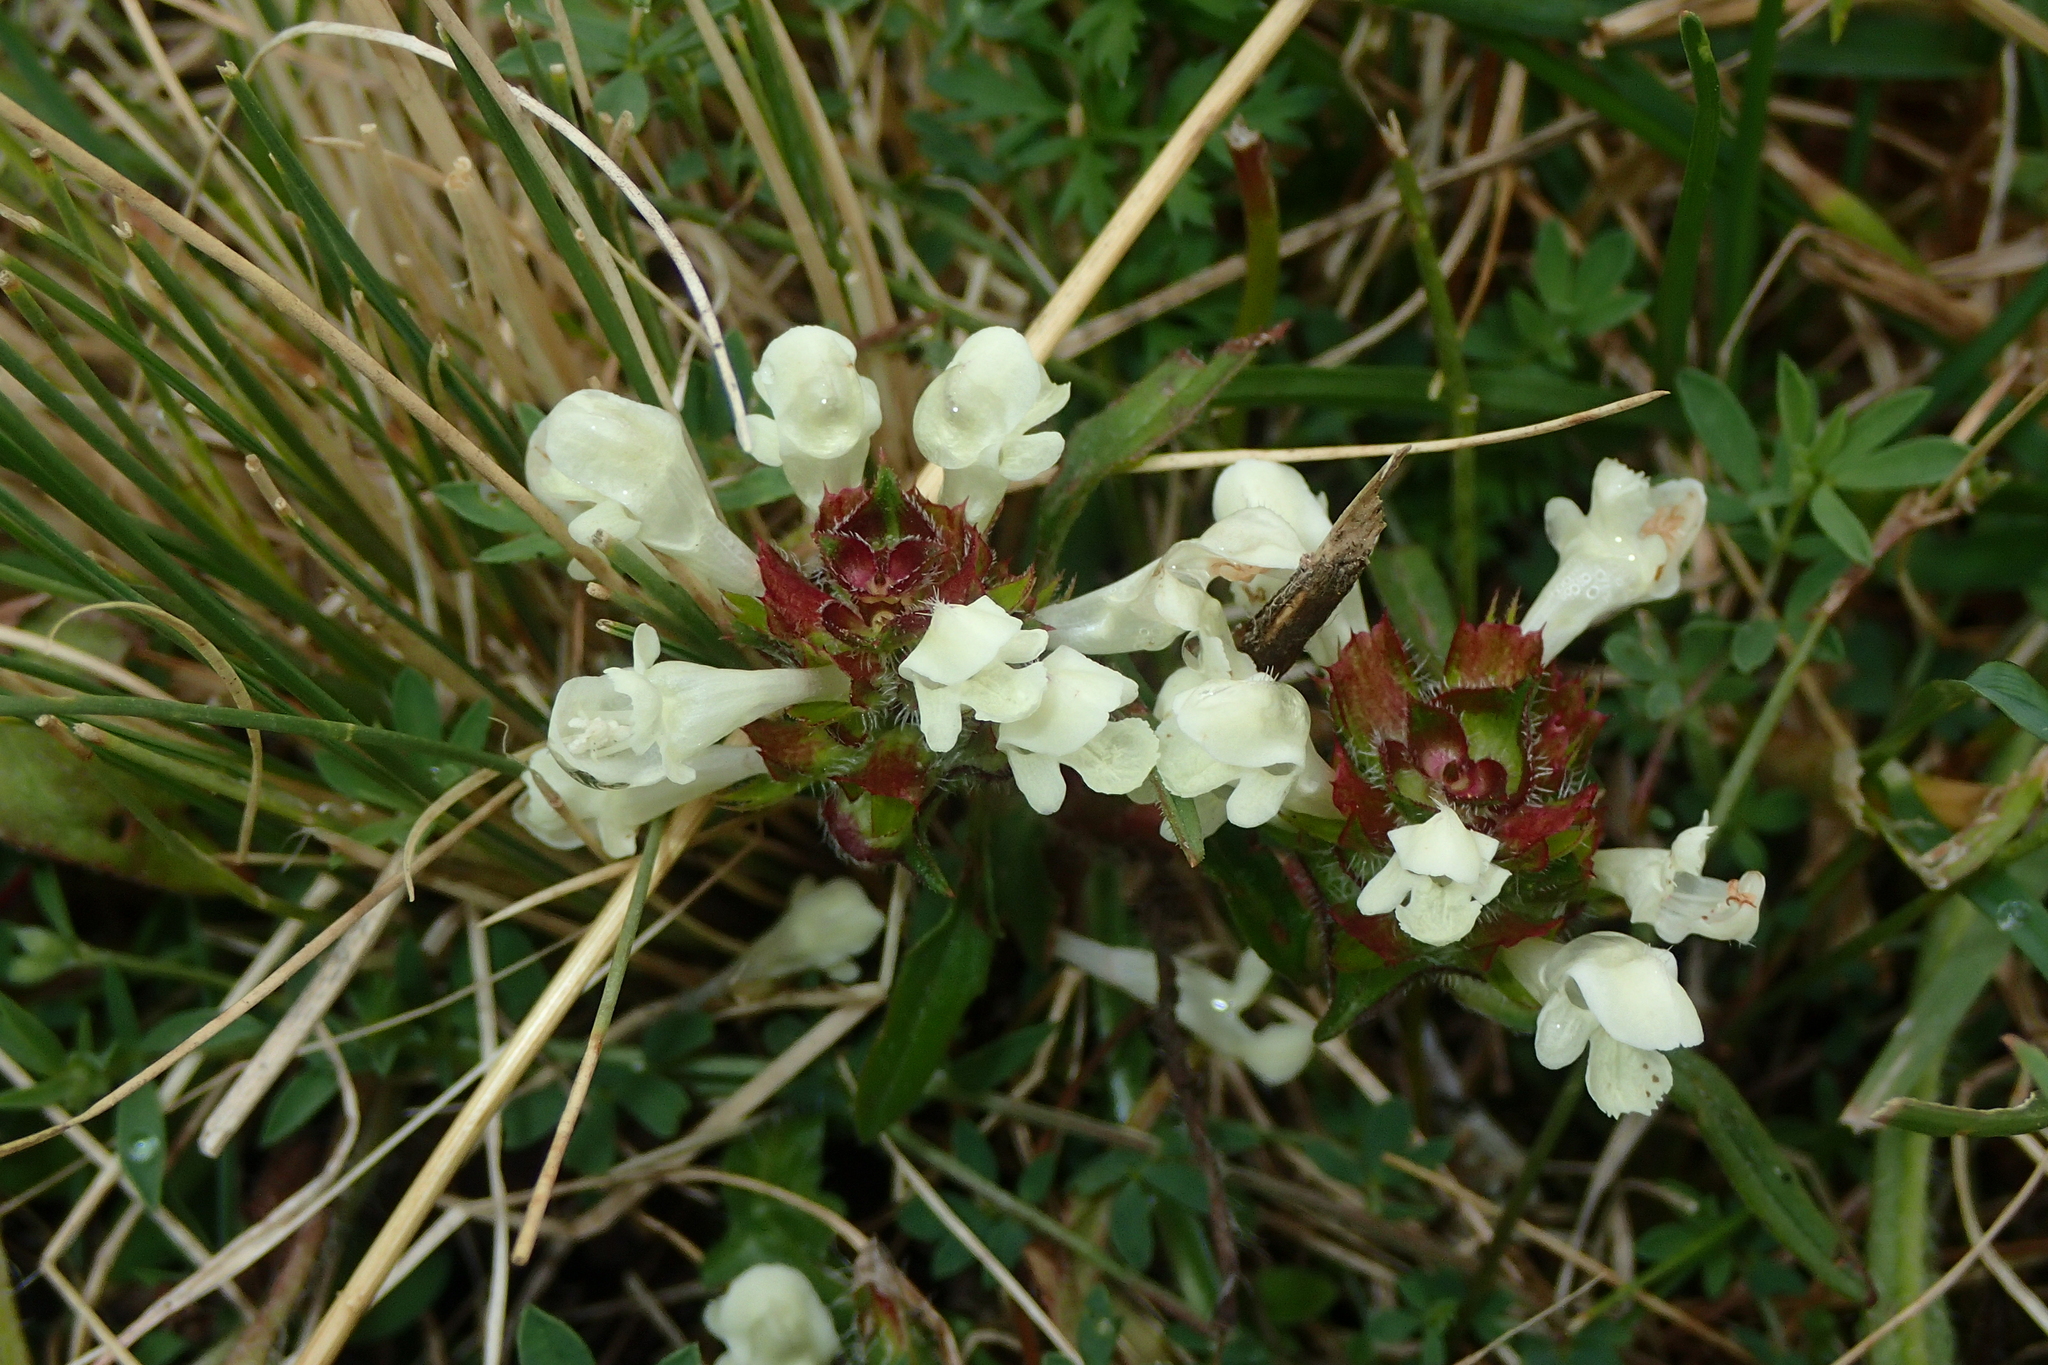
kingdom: Plantae
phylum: Tracheophyta
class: Magnoliopsida
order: Lamiales
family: Lamiaceae
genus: Prunella
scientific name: Prunella laciniata
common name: Cut-leaved selfheal
